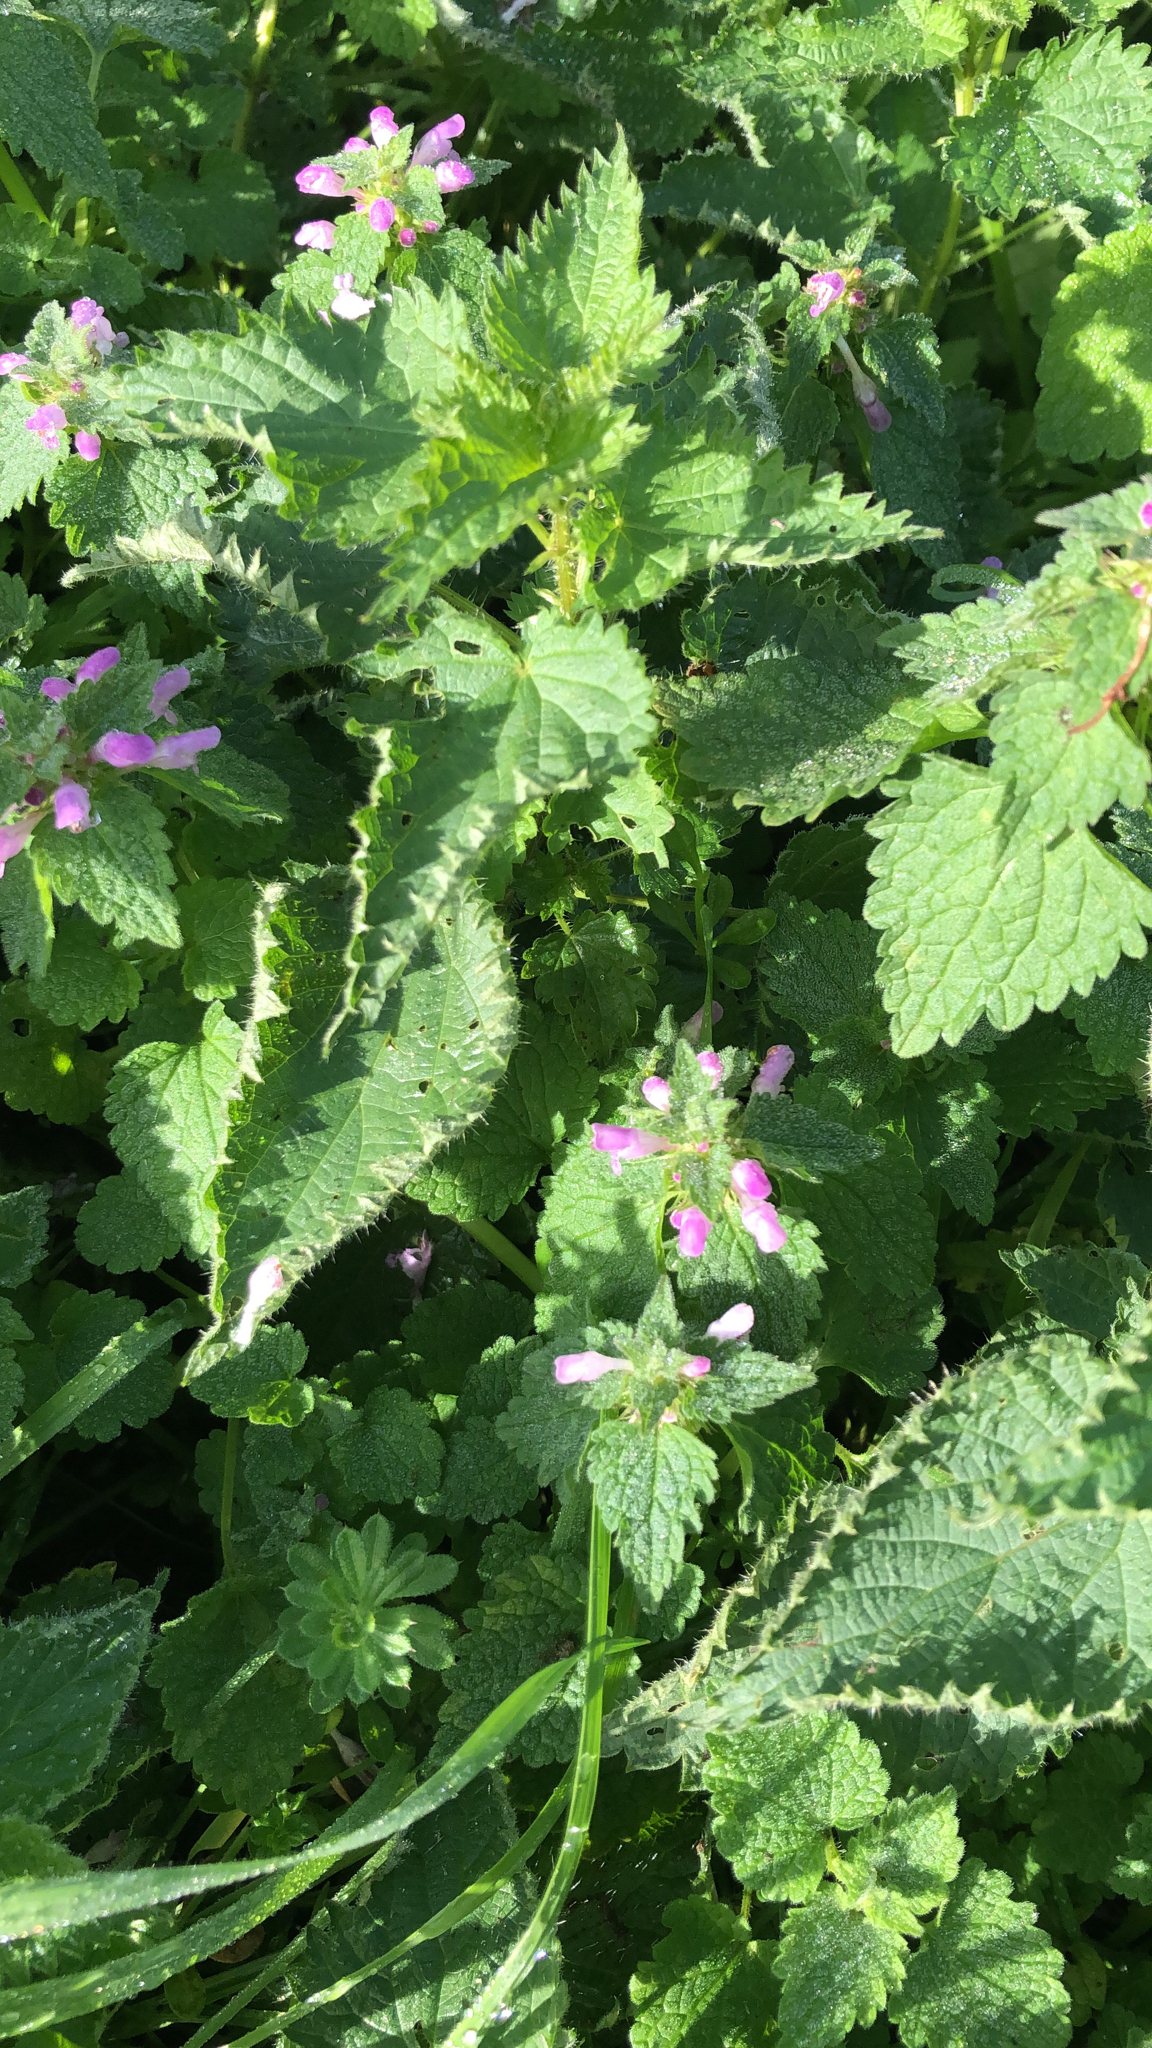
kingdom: Plantae
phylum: Tracheophyta
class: Magnoliopsida
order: Lamiales
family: Lamiaceae
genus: Lamium
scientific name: Lamium purpureum
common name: Red dead-nettle
